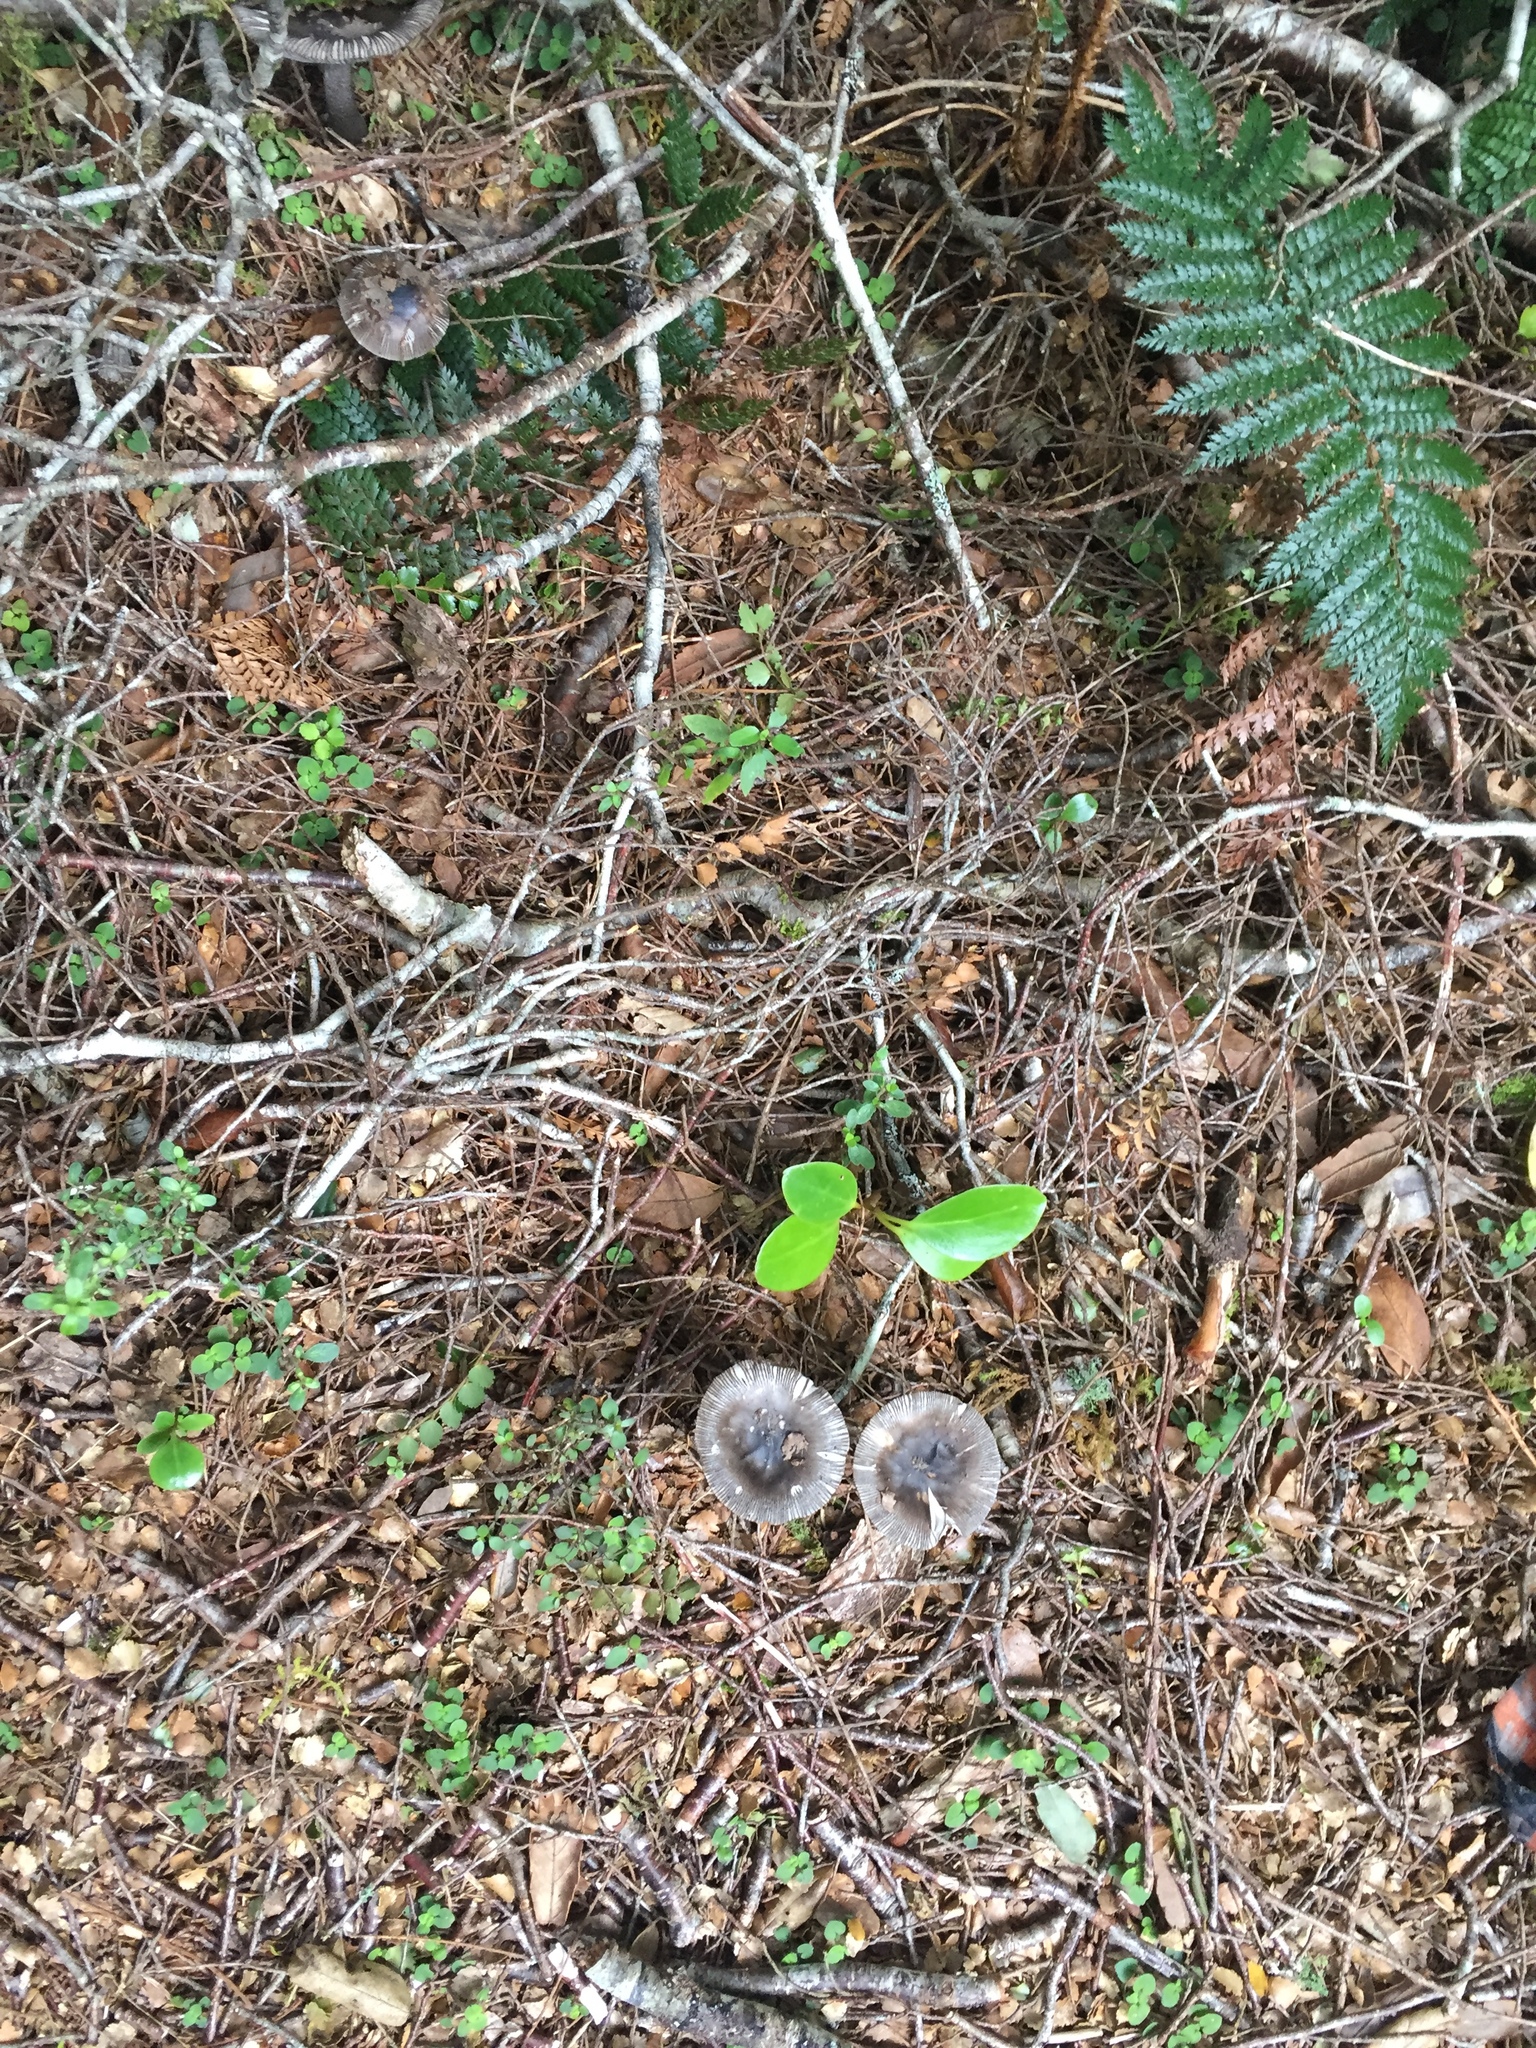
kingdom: Fungi
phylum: Basidiomycota
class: Agaricomycetes
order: Agaricales
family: Amanitaceae
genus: Amanita
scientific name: Amanita pekeoides
